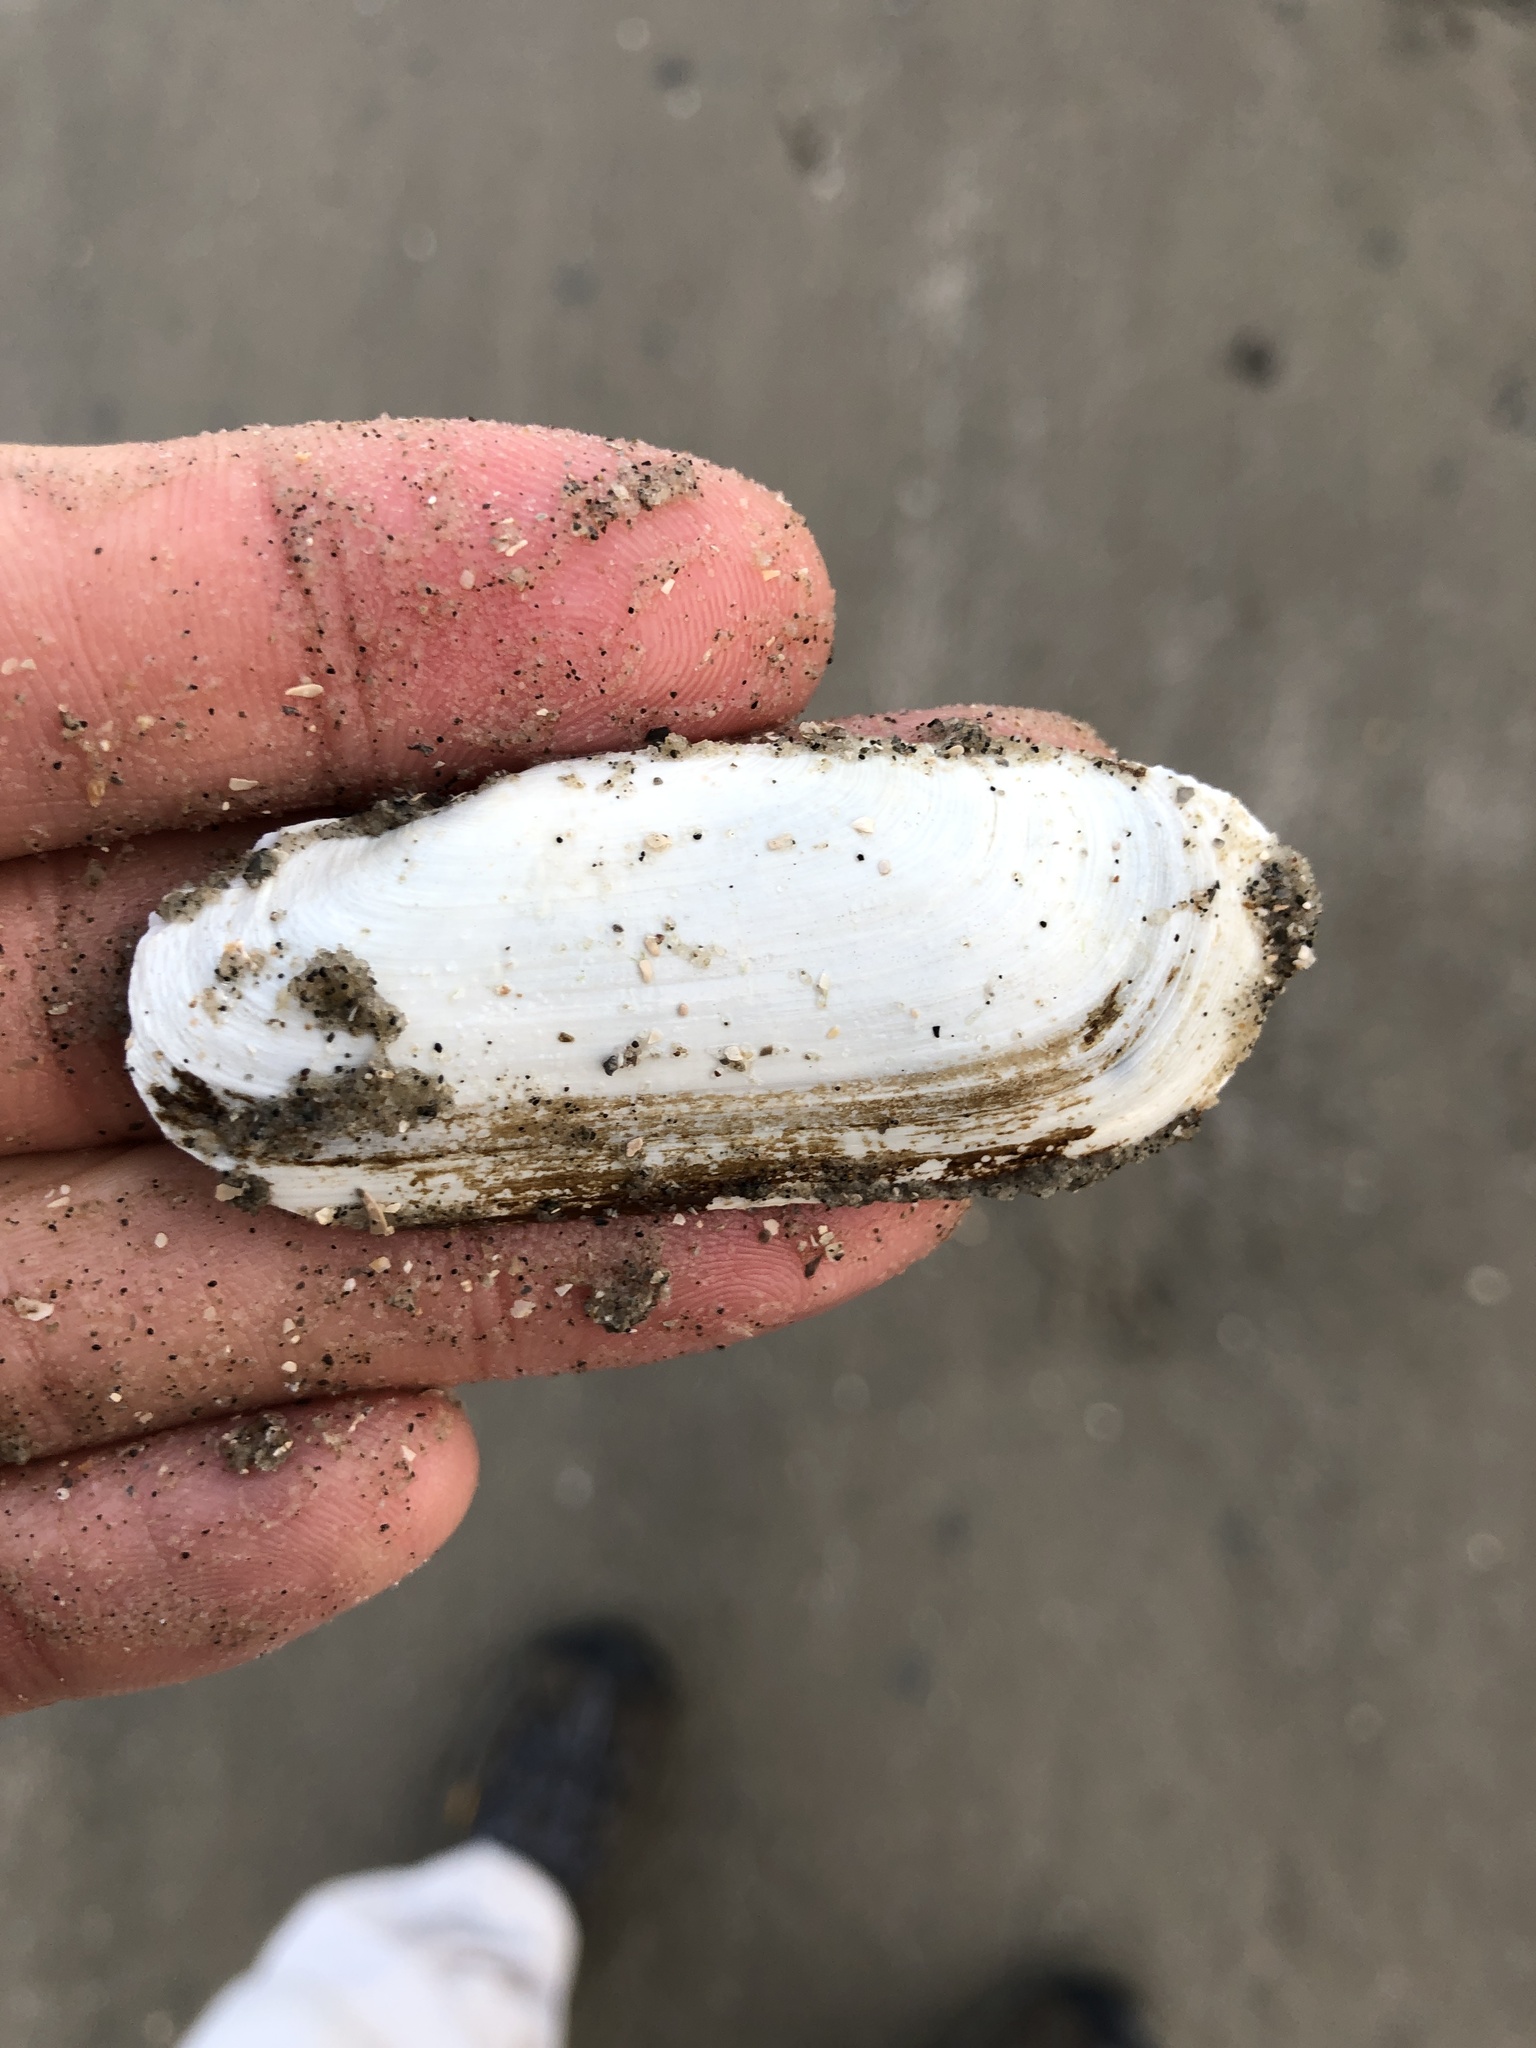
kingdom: Animalia
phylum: Mollusca
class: Bivalvia
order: Cardiida
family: Solecurtidae
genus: Tagelus
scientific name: Tagelus plebeius
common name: Stout tagelus
